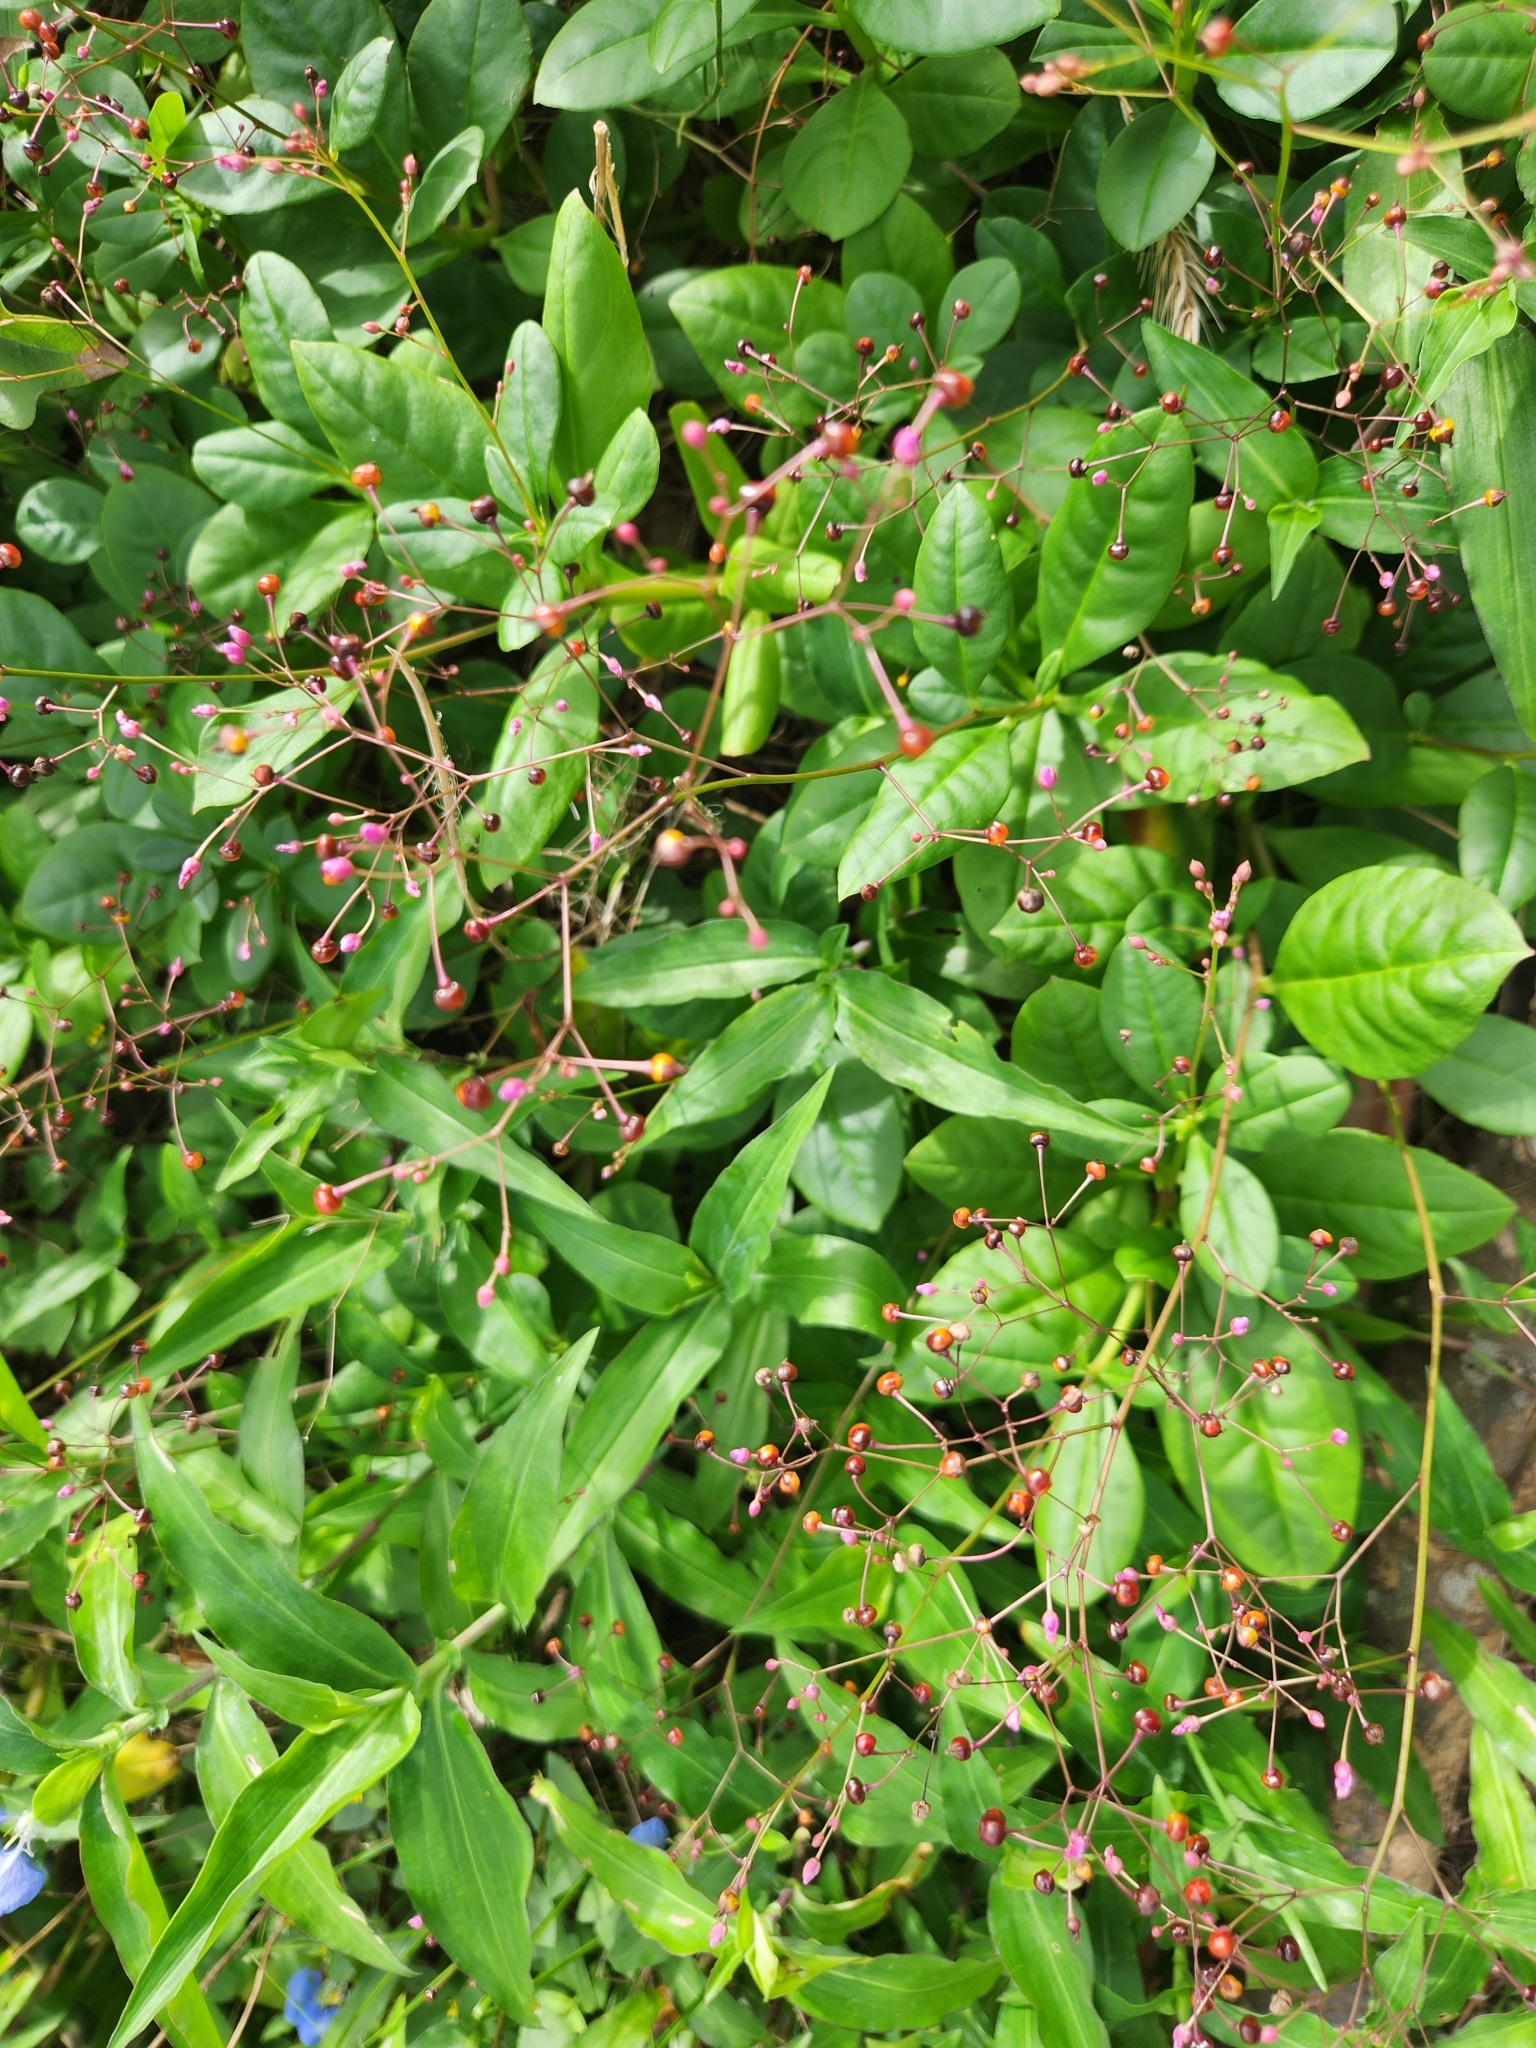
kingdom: Plantae
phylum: Tracheophyta
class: Magnoliopsida
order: Caryophyllales
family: Talinaceae
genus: Talinum
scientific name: Talinum paniculatum
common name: Jewels of opar
